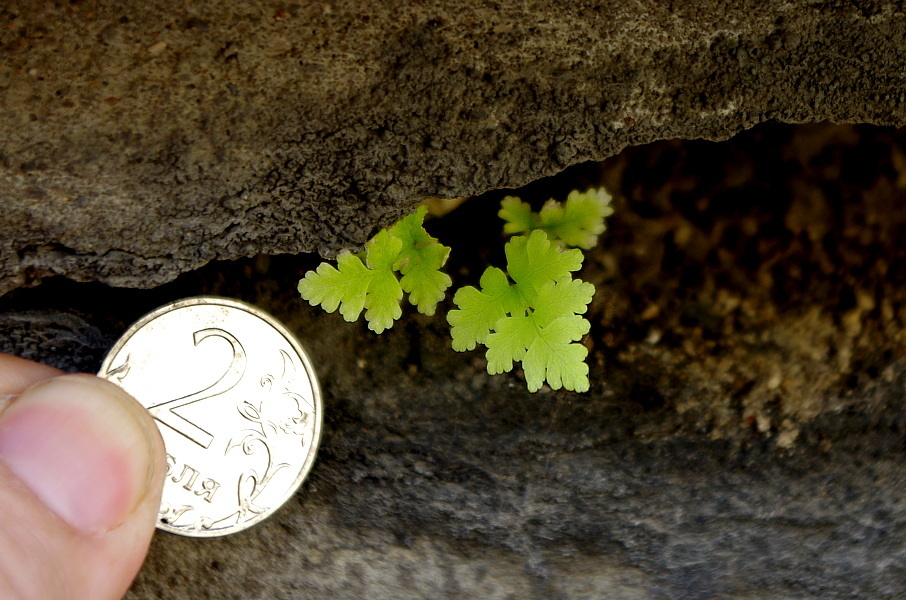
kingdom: Plantae
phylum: Tracheophyta
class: Polypodiopsida
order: Polypodiales
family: Athyriaceae
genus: Athyrium
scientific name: Athyrium filix-femina
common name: Lady fern
